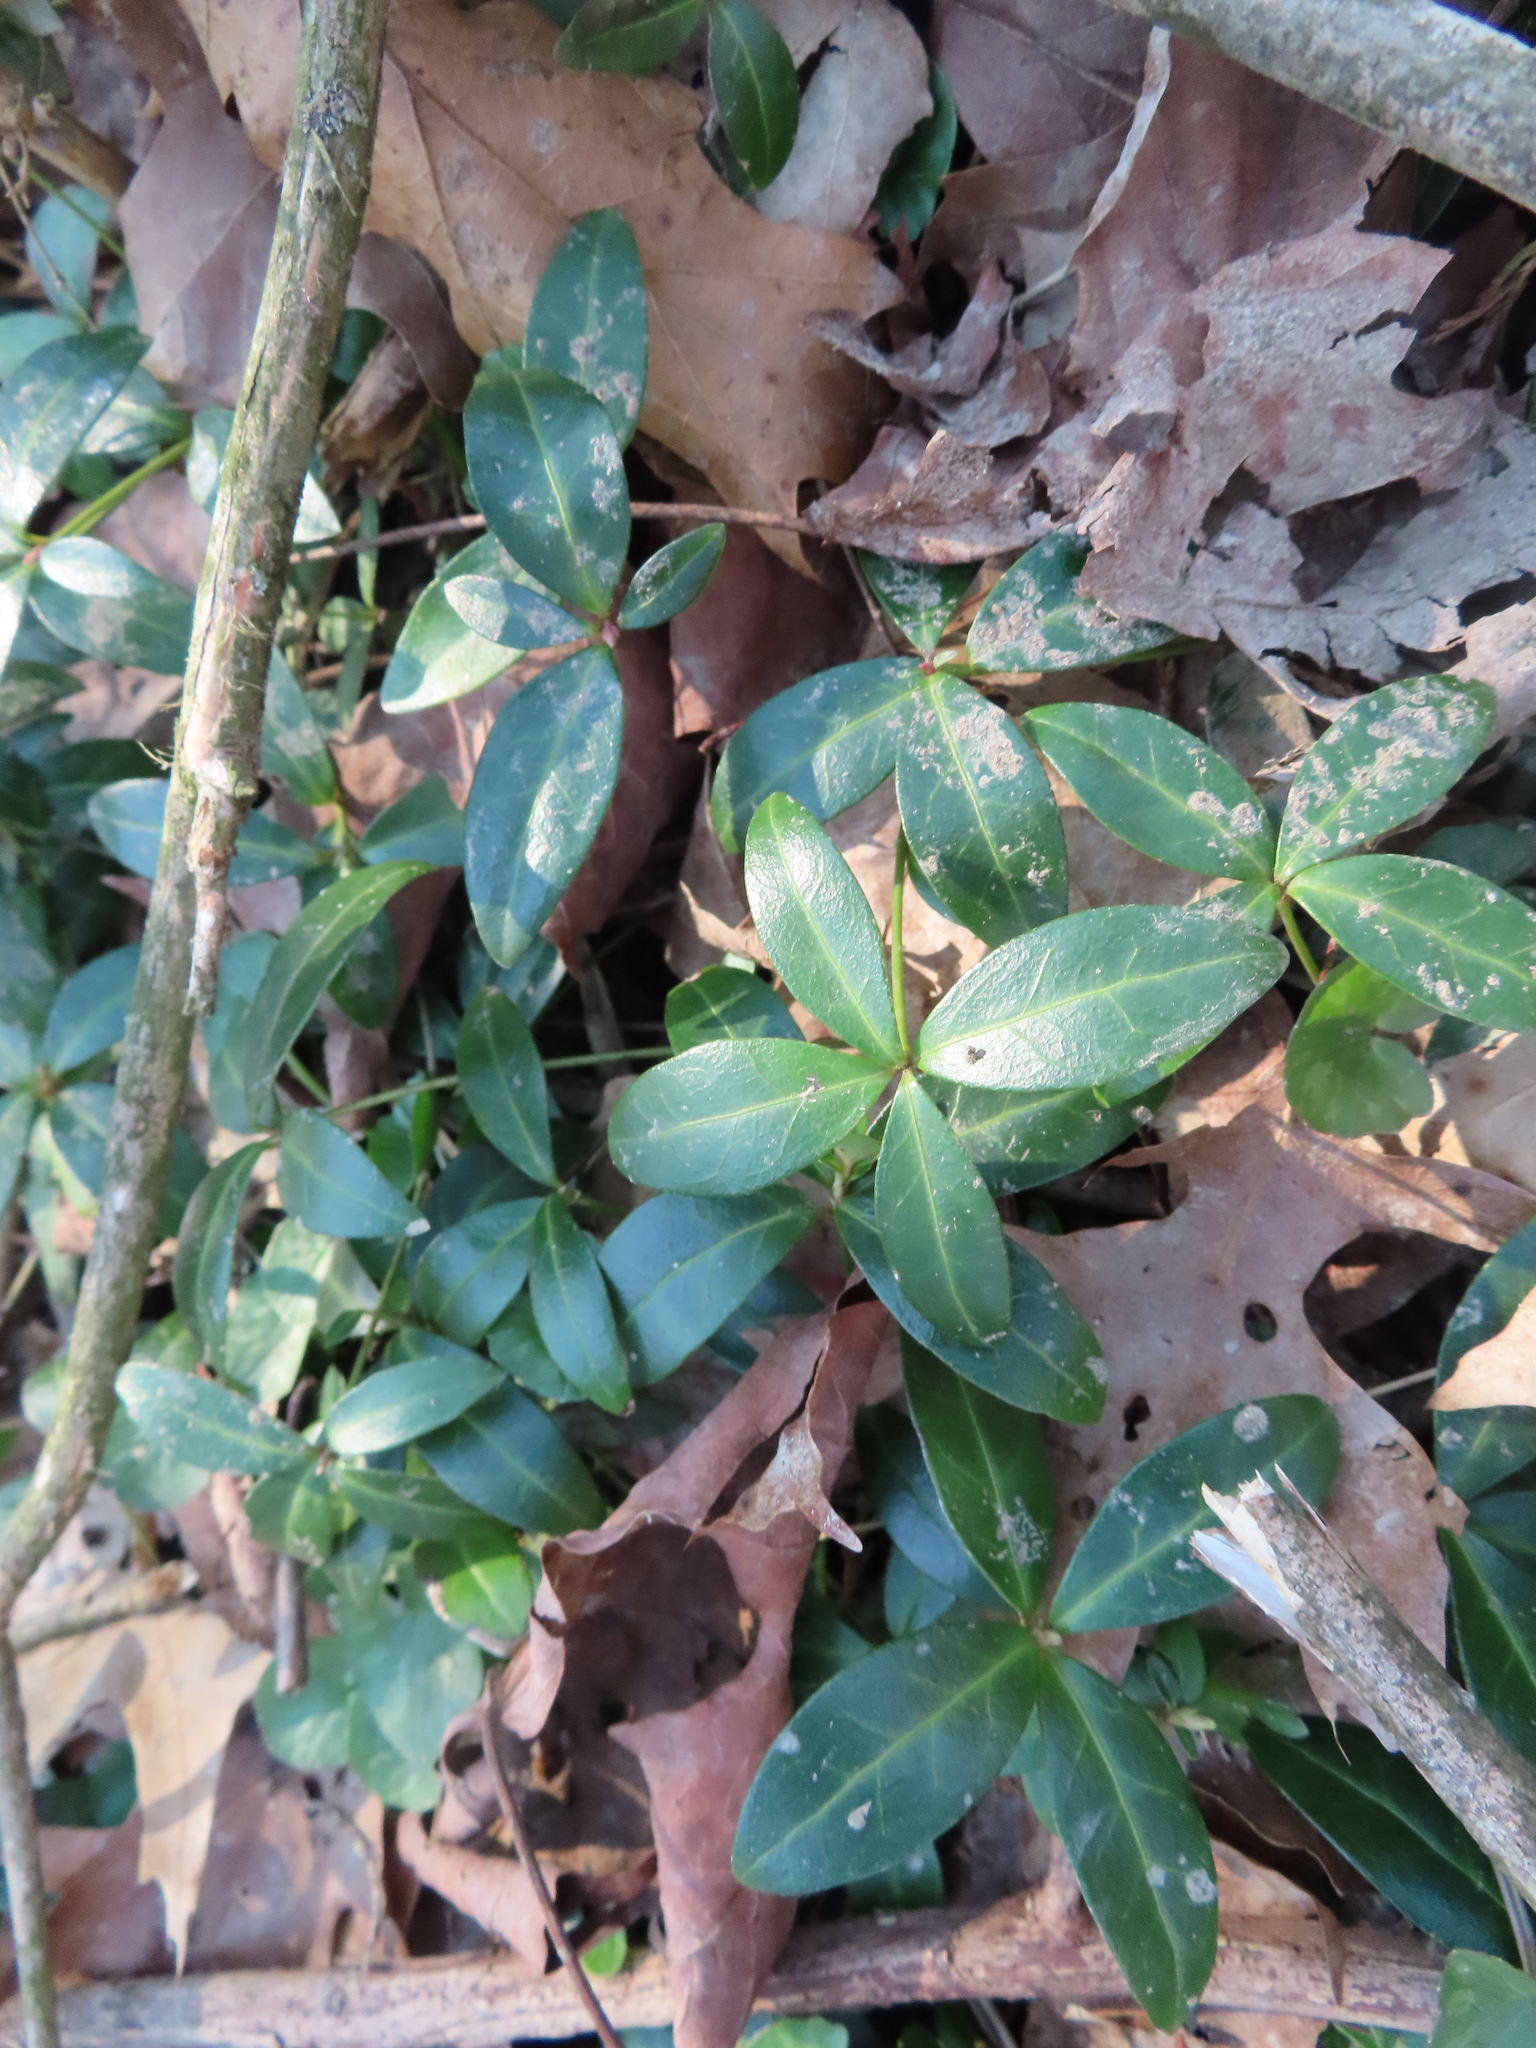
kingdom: Plantae
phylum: Tracheophyta
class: Magnoliopsida
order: Gentianales
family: Apocynaceae
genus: Vinca
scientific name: Vinca minor
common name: Lesser periwinkle
